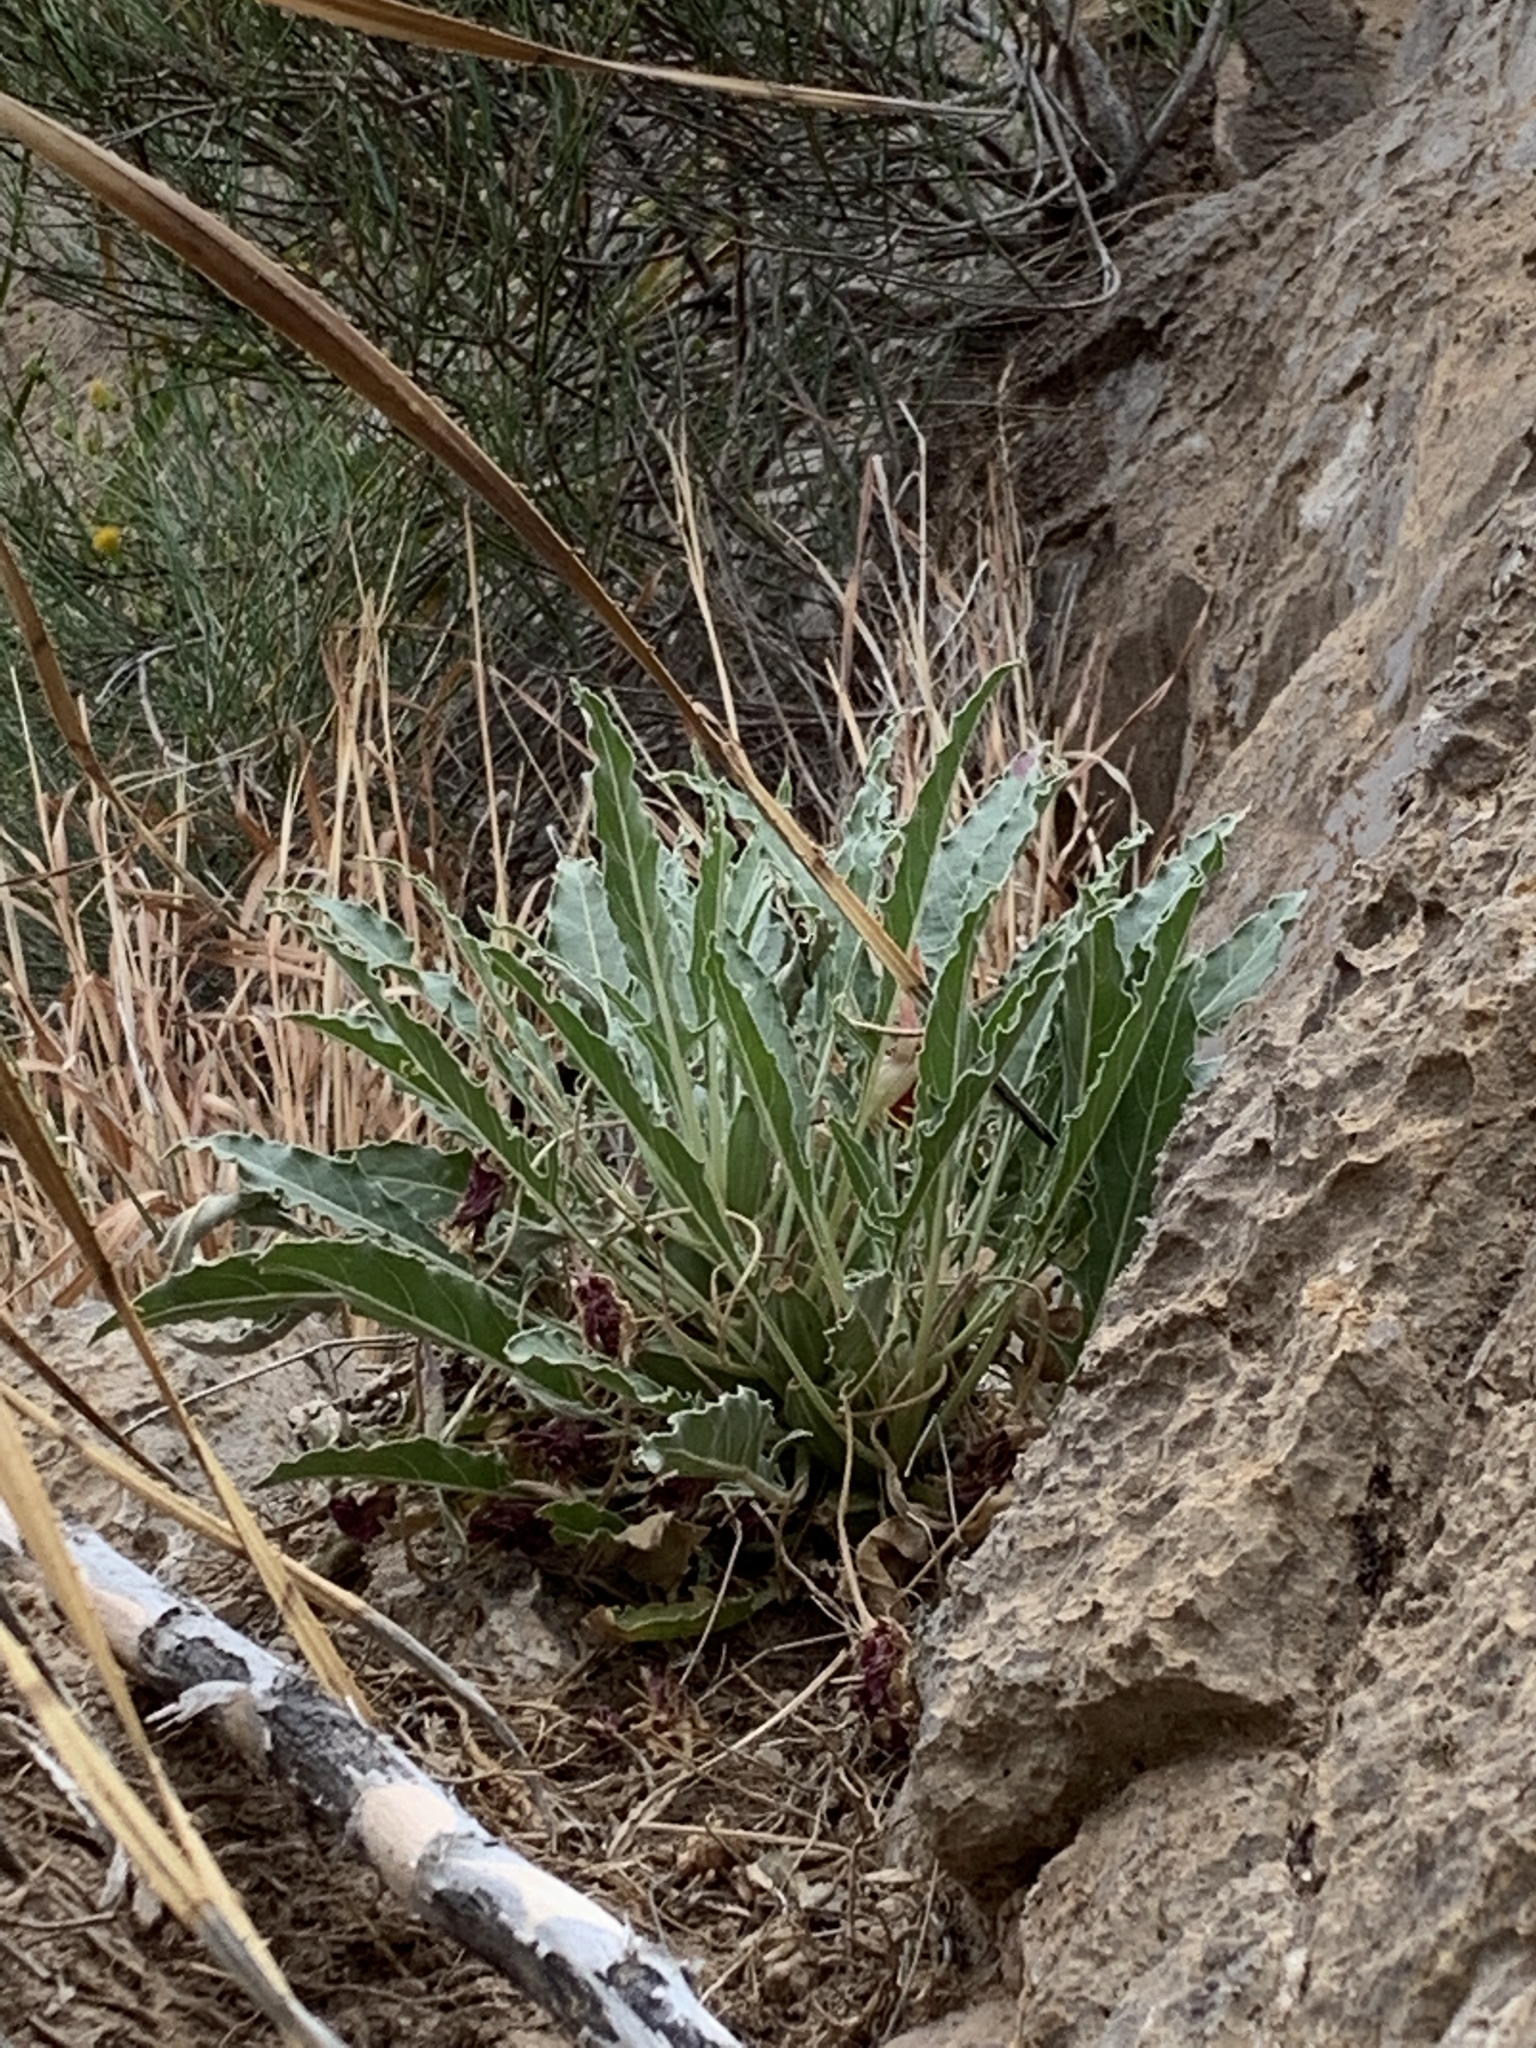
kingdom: Plantae
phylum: Tracheophyta
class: Magnoliopsida
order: Myrtales
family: Onagraceae
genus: Oenothera
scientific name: Oenothera cespitosa
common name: Tufted evening-primrose
